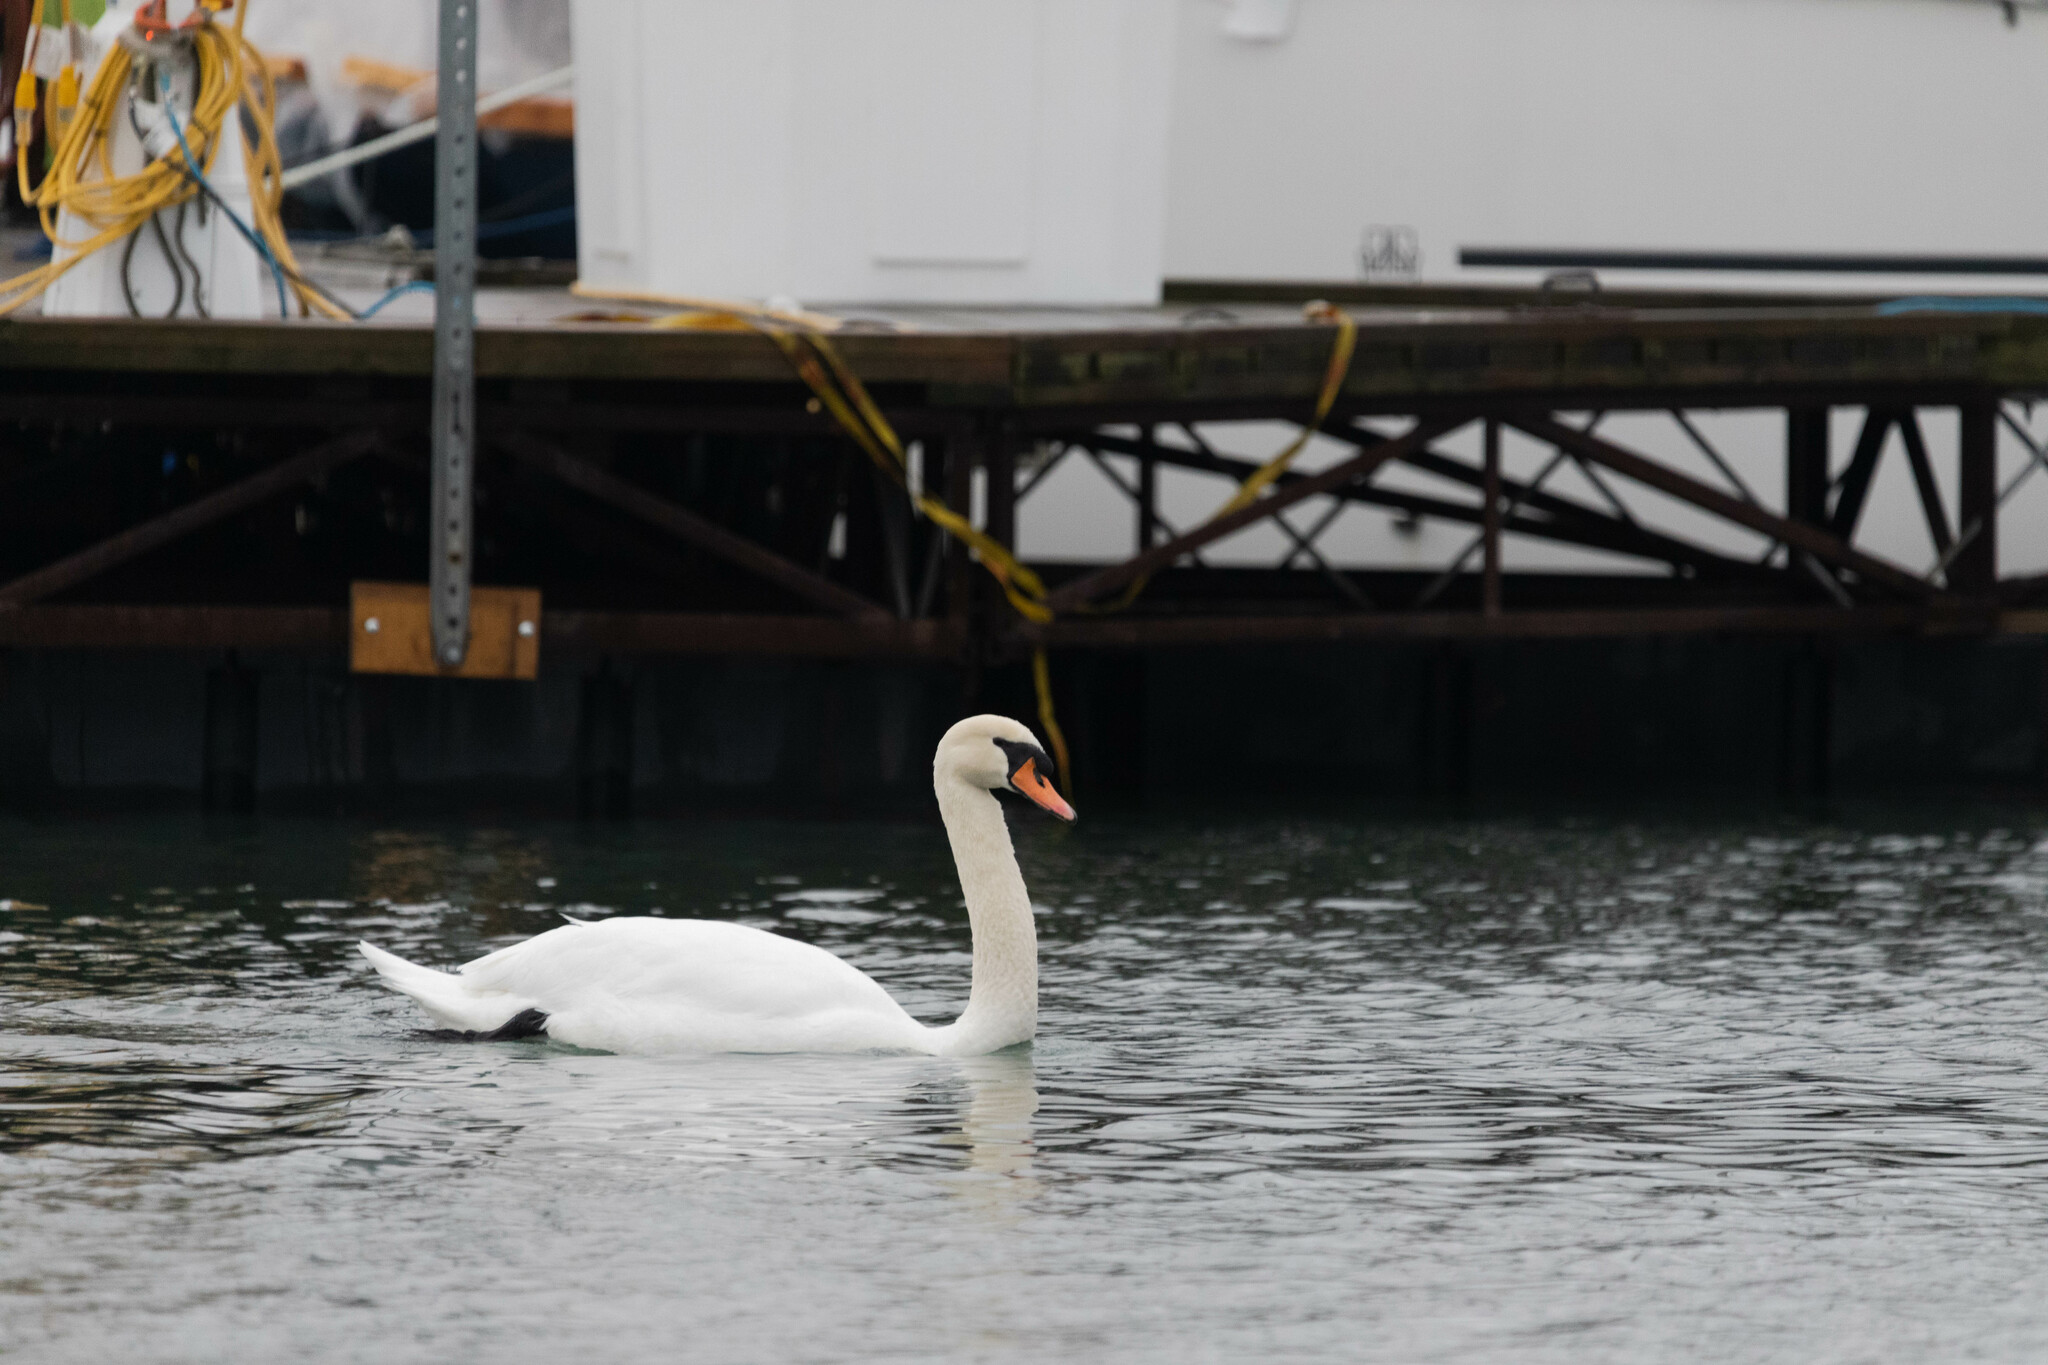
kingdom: Animalia
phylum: Chordata
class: Aves
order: Anseriformes
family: Anatidae
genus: Cygnus
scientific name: Cygnus olor
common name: Mute swan
